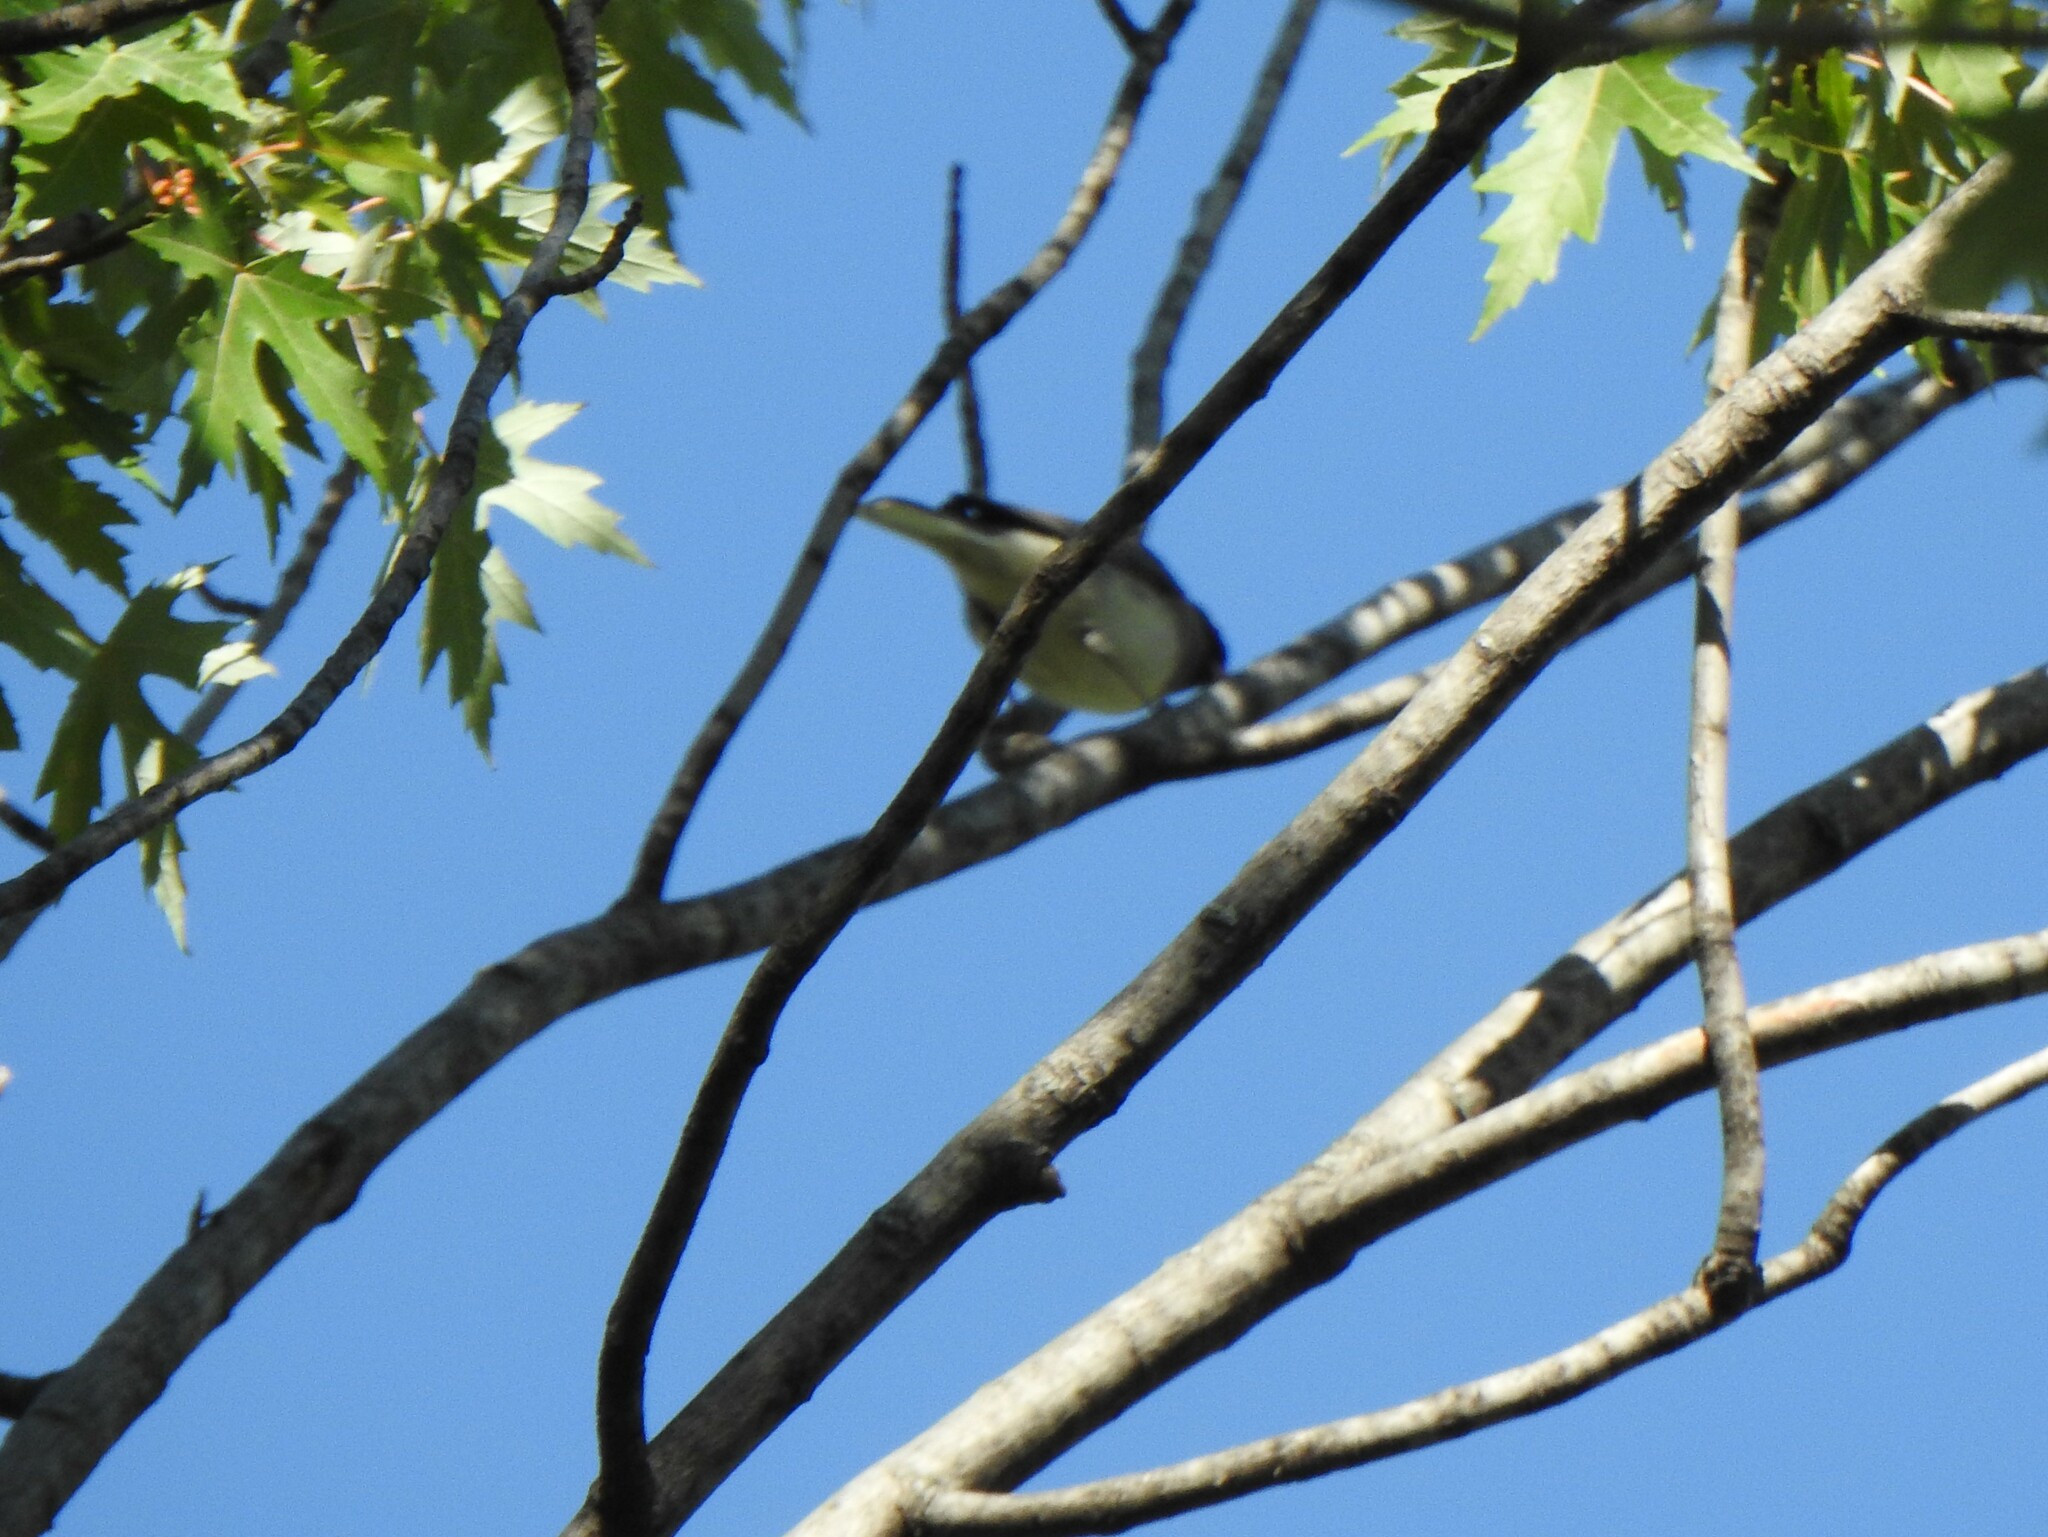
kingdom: Animalia
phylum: Chordata
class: Aves
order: Passeriformes
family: Passerellidae
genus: Junco
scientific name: Junco hyemalis
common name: Dark-eyed junco
